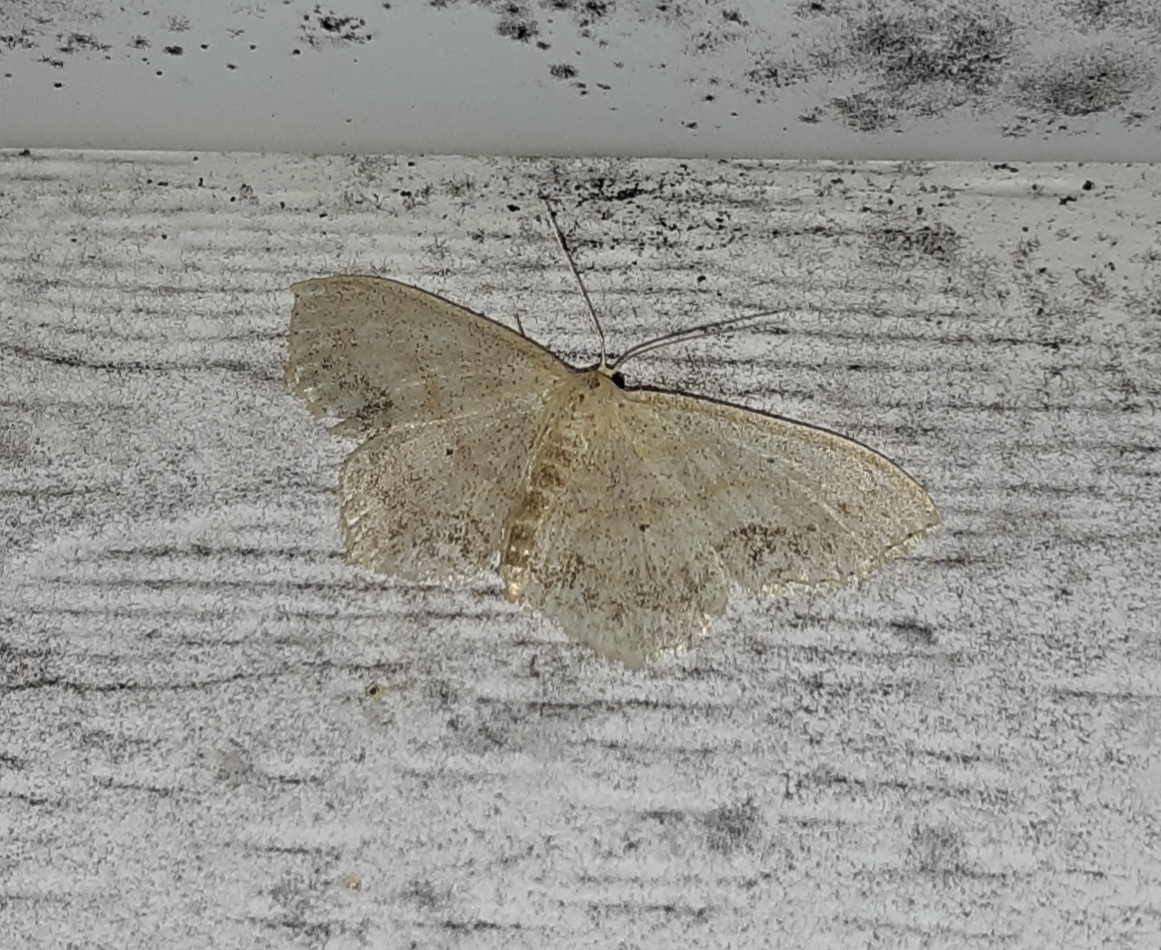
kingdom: Animalia
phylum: Arthropoda
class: Insecta
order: Lepidoptera
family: Geometridae
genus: Scopula
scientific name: Scopula limboundata
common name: Large lace border
